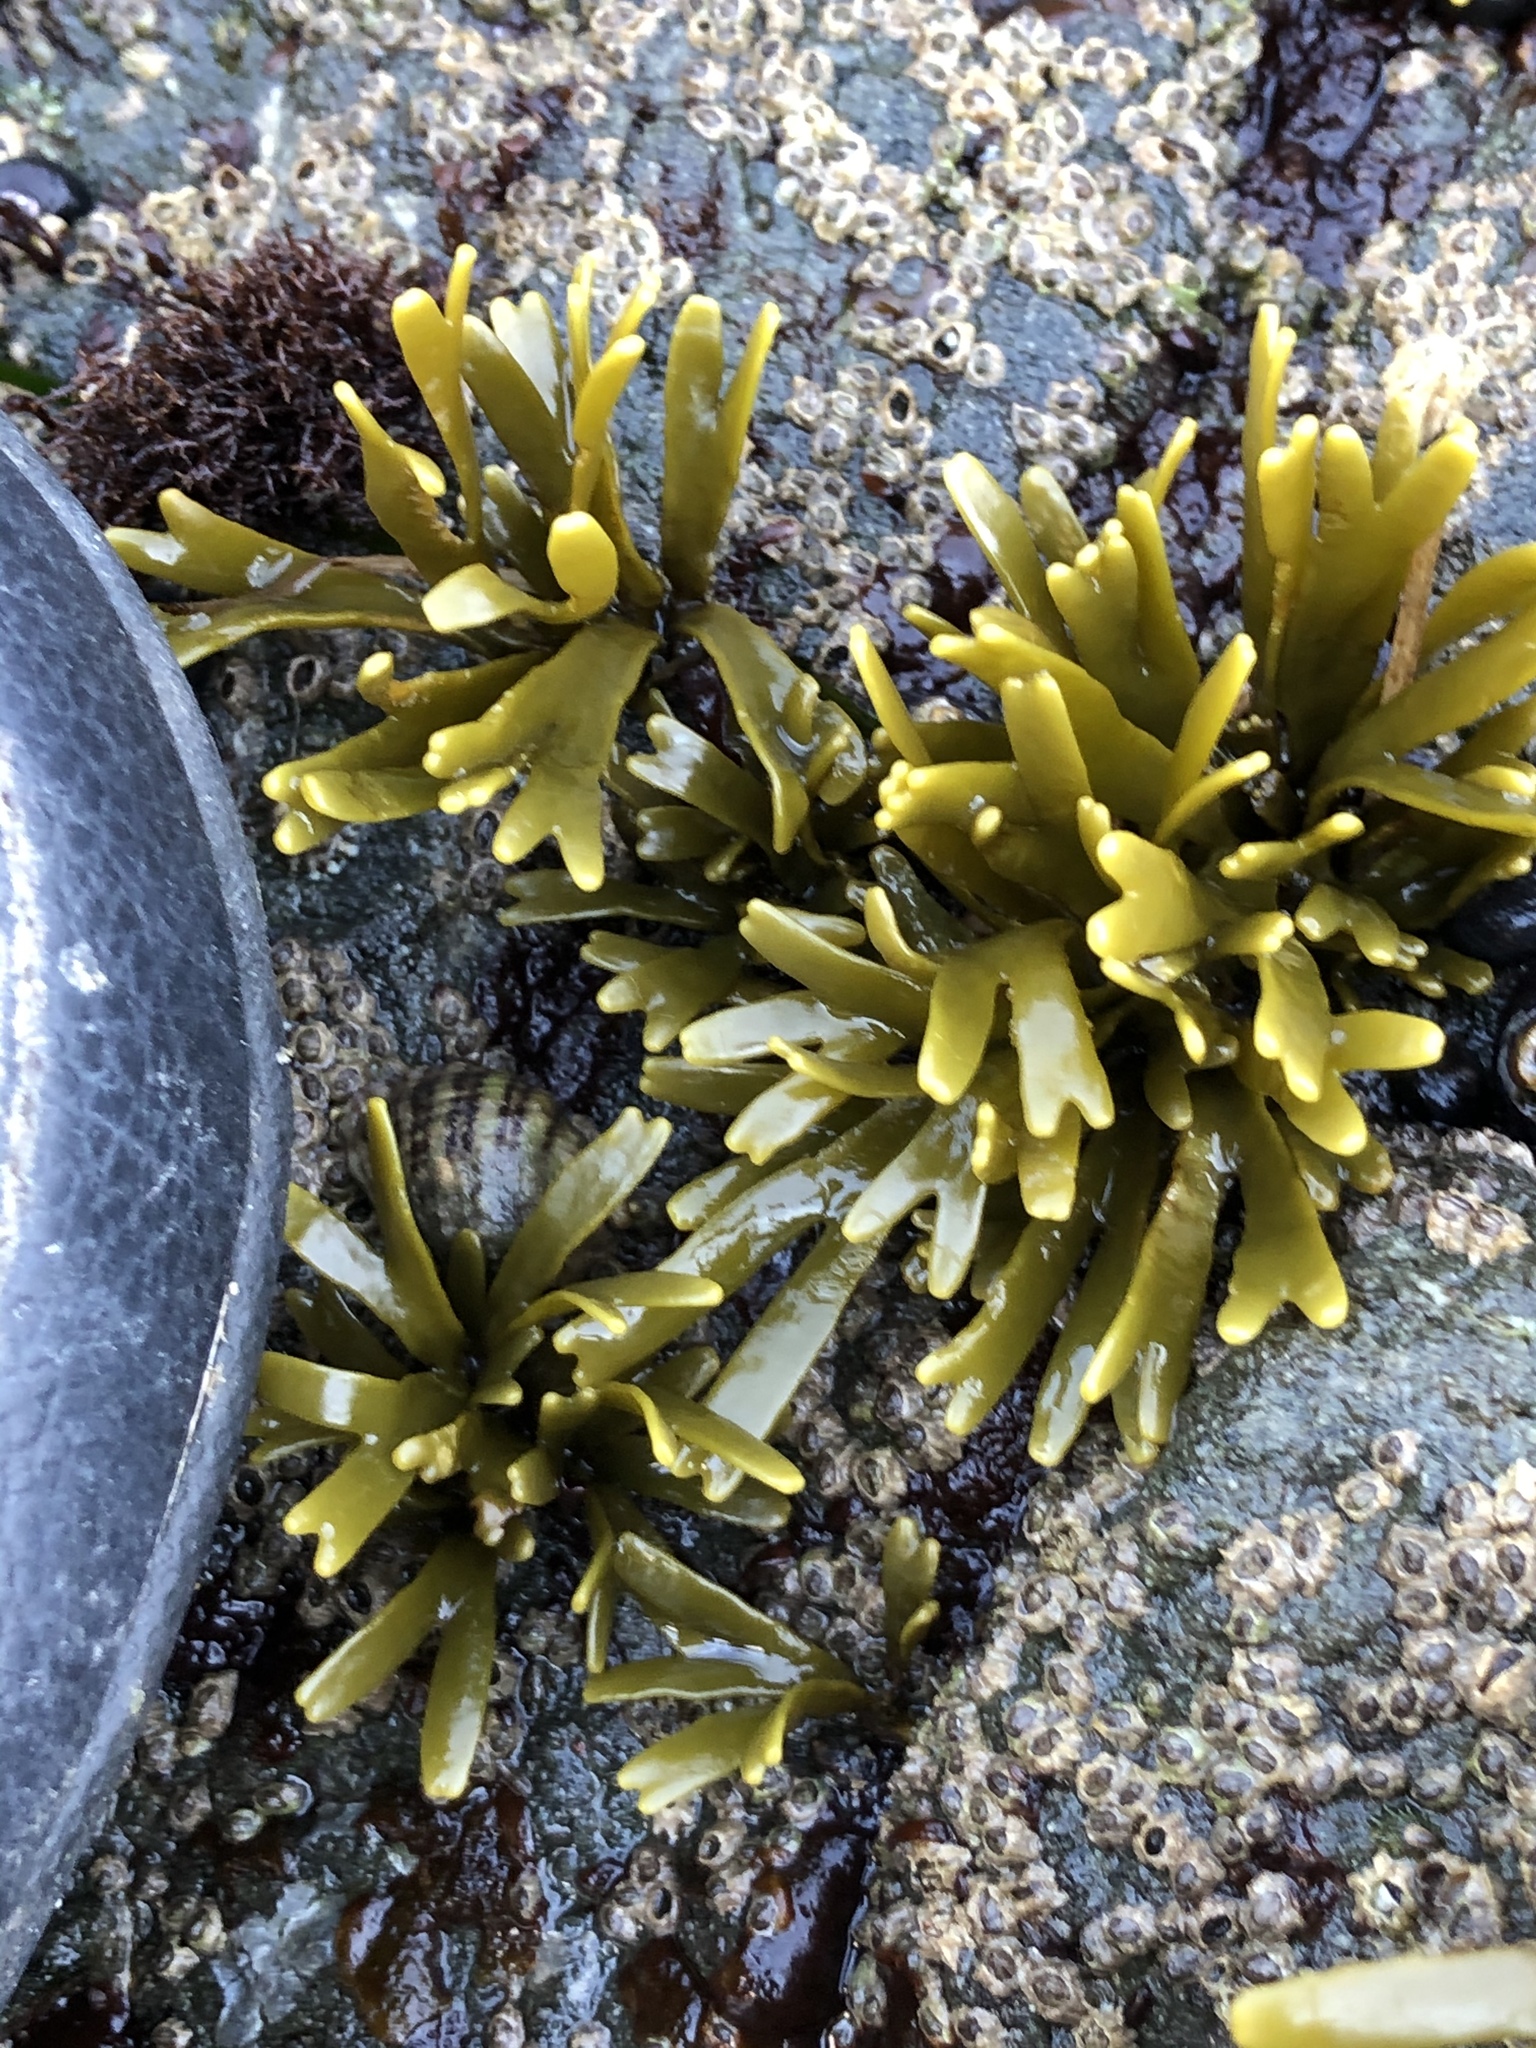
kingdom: Chromista
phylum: Ochrophyta
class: Phaeophyceae
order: Fucales
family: Fucaceae
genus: Pelvetiopsis
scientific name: Pelvetiopsis limitata
